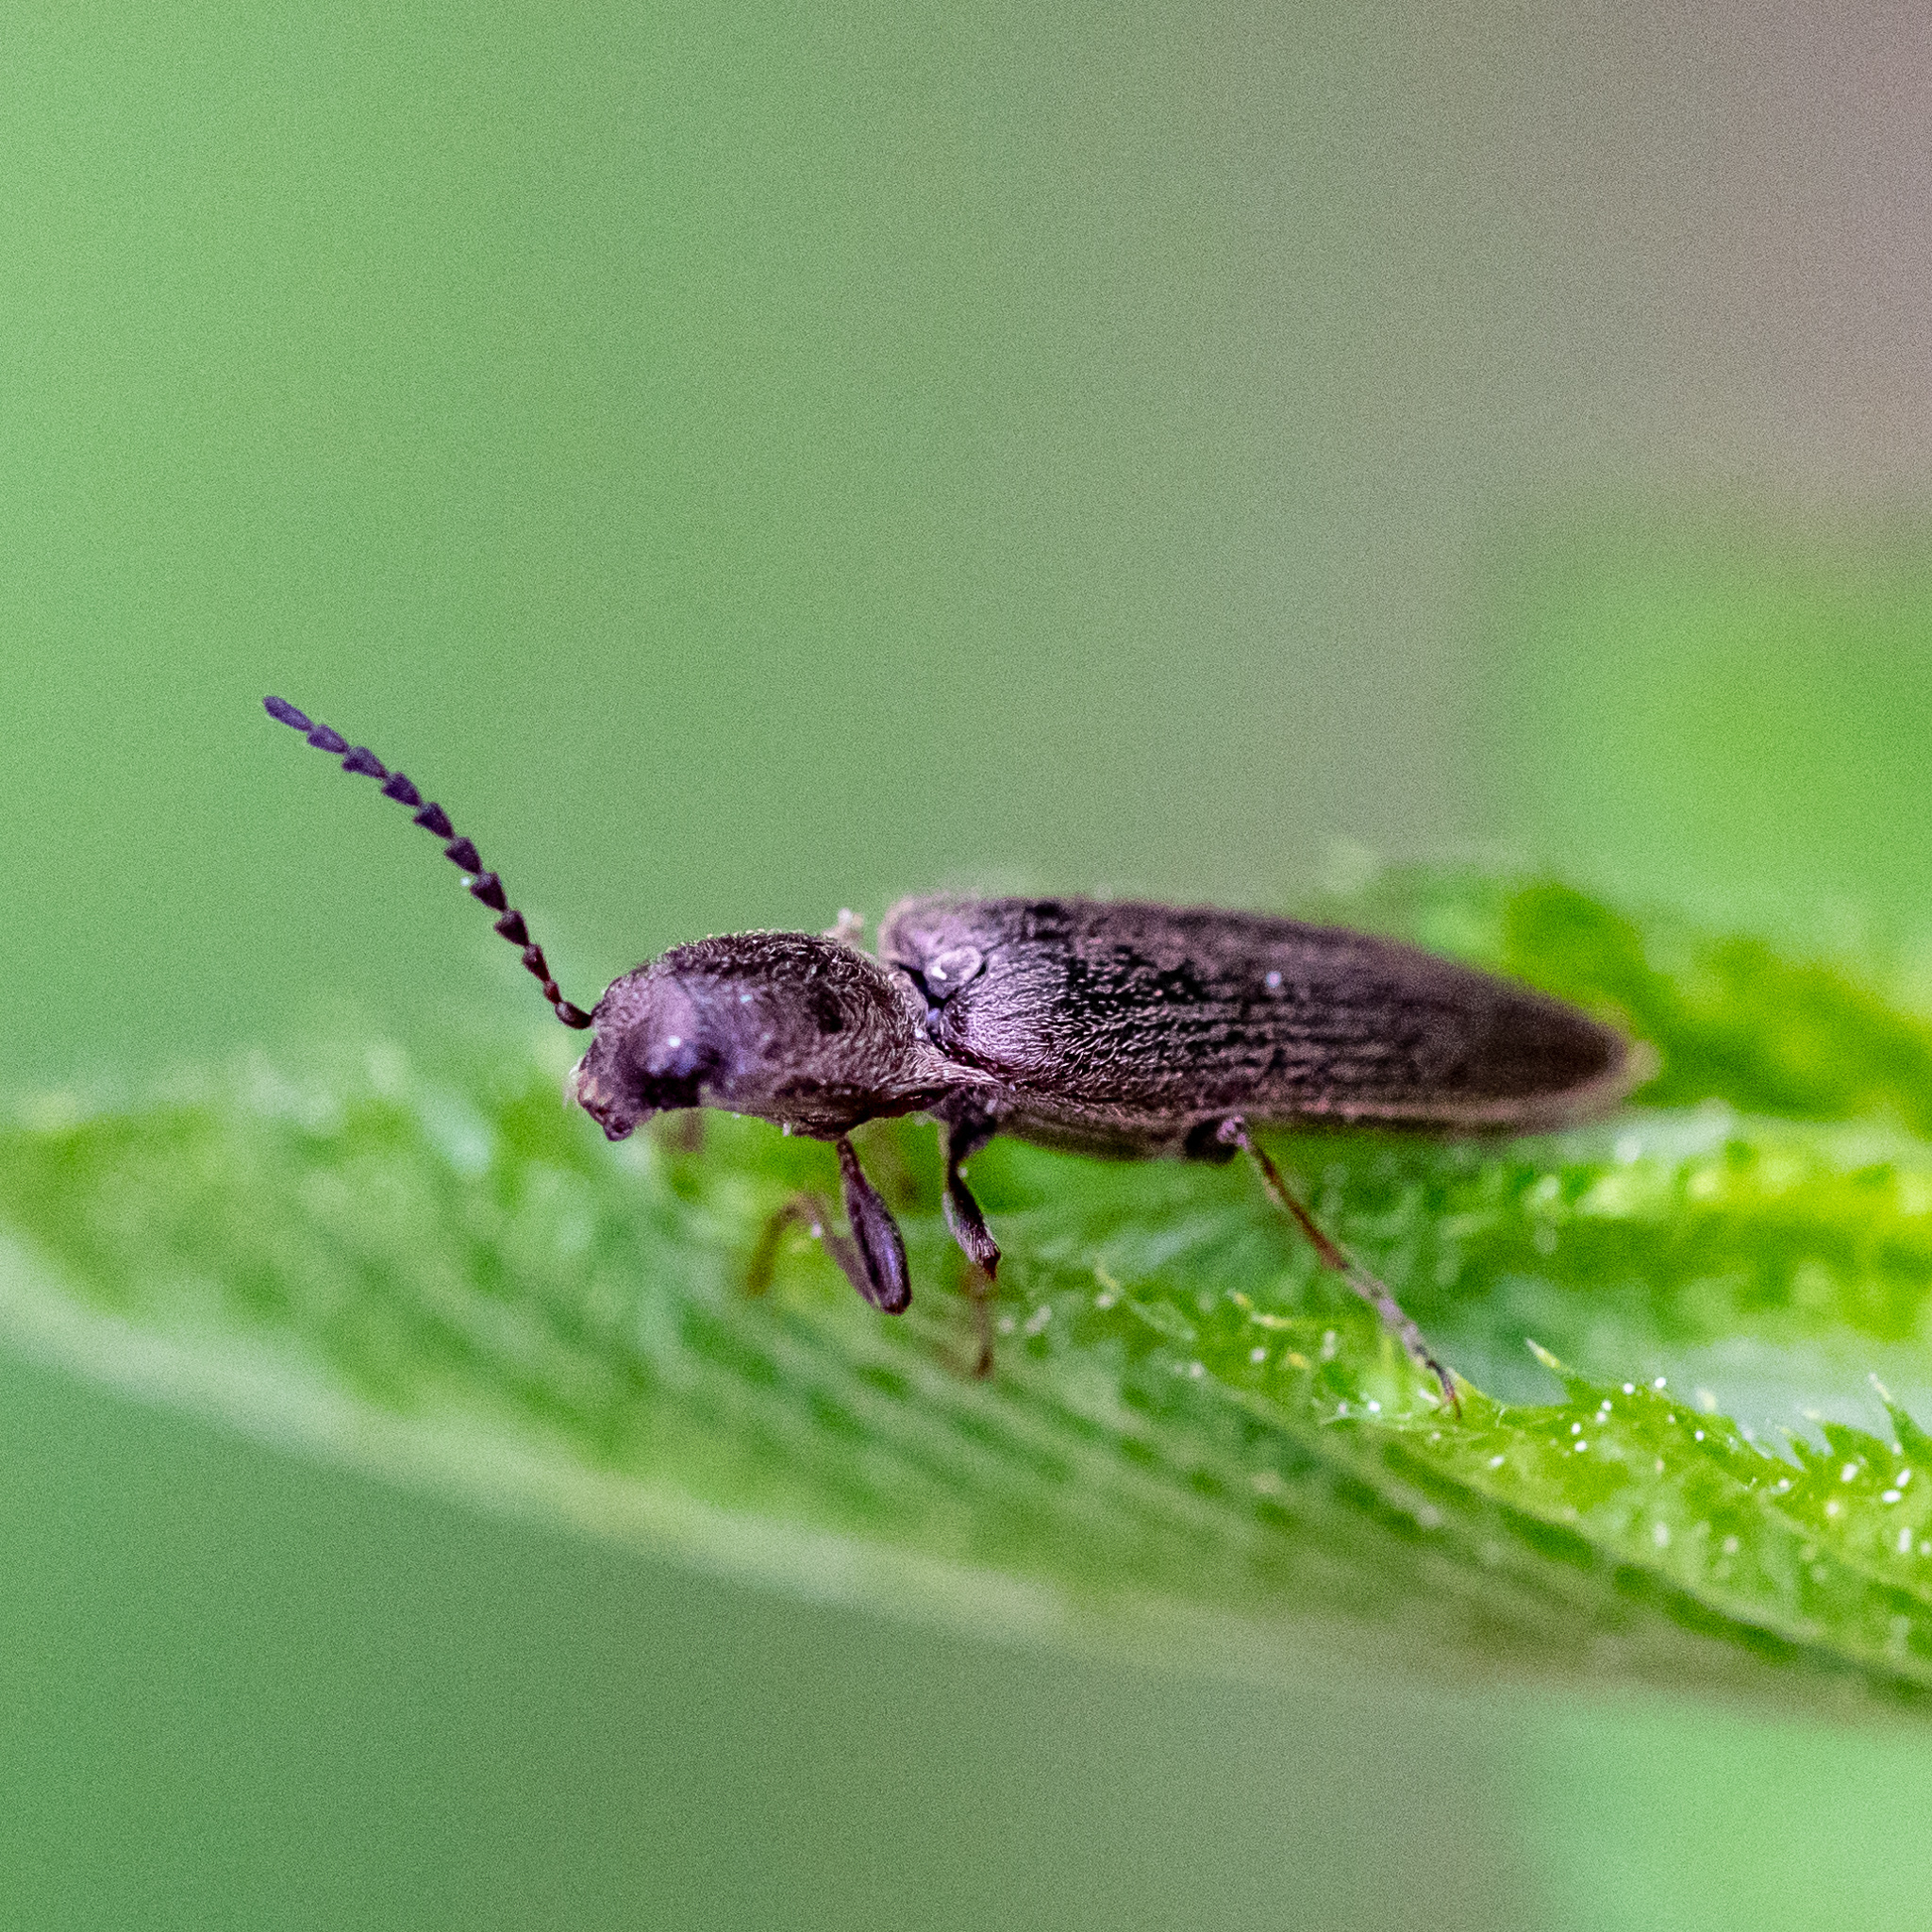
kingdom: Animalia
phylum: Arthropoda
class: Insecta
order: Coleoptera
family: Elateridae
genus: Sylvanelater
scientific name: Sylvanelater cylindriformis
